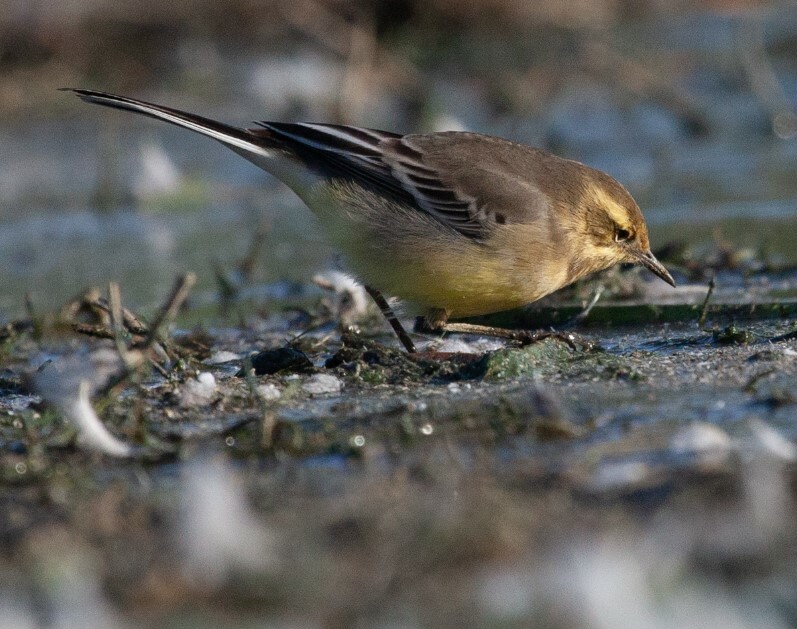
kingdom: Animalia
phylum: Chordata
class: Aves
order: Passeriformes
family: Motacillidae
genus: Motacilla
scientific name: Motacilla flava
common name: Western yellow wagtail
